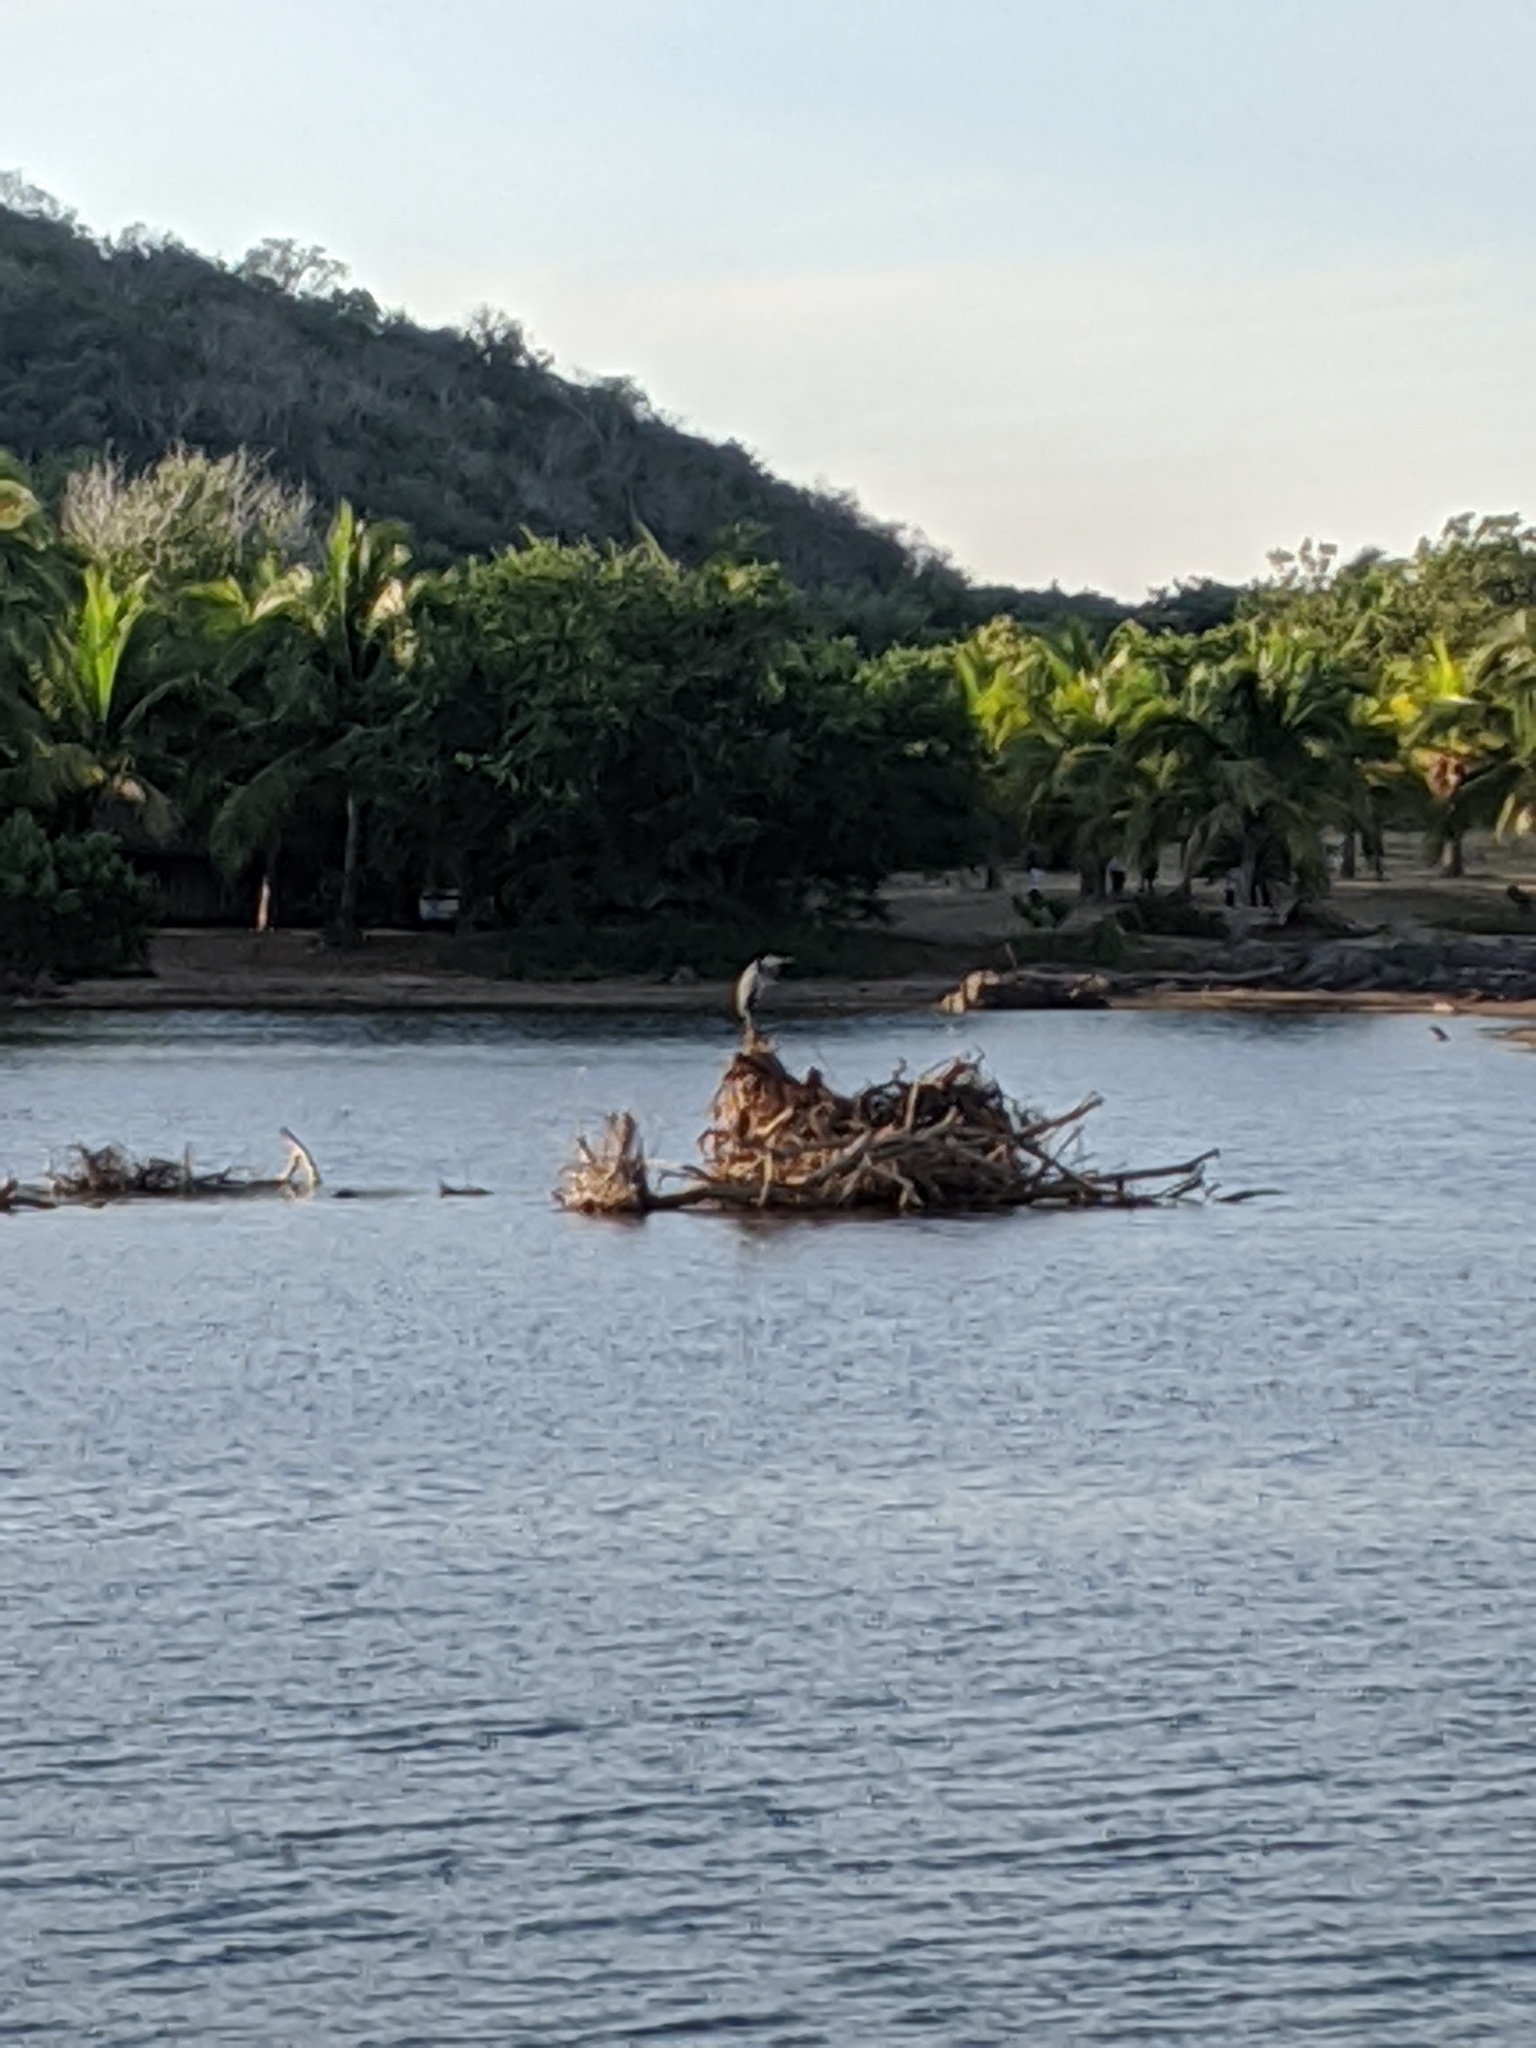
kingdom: Animalia
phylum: Chordata
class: Aves
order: Pelecaniformes
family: Ardeidae
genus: Ardea
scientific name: Ardea herodias
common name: Great blue heron
